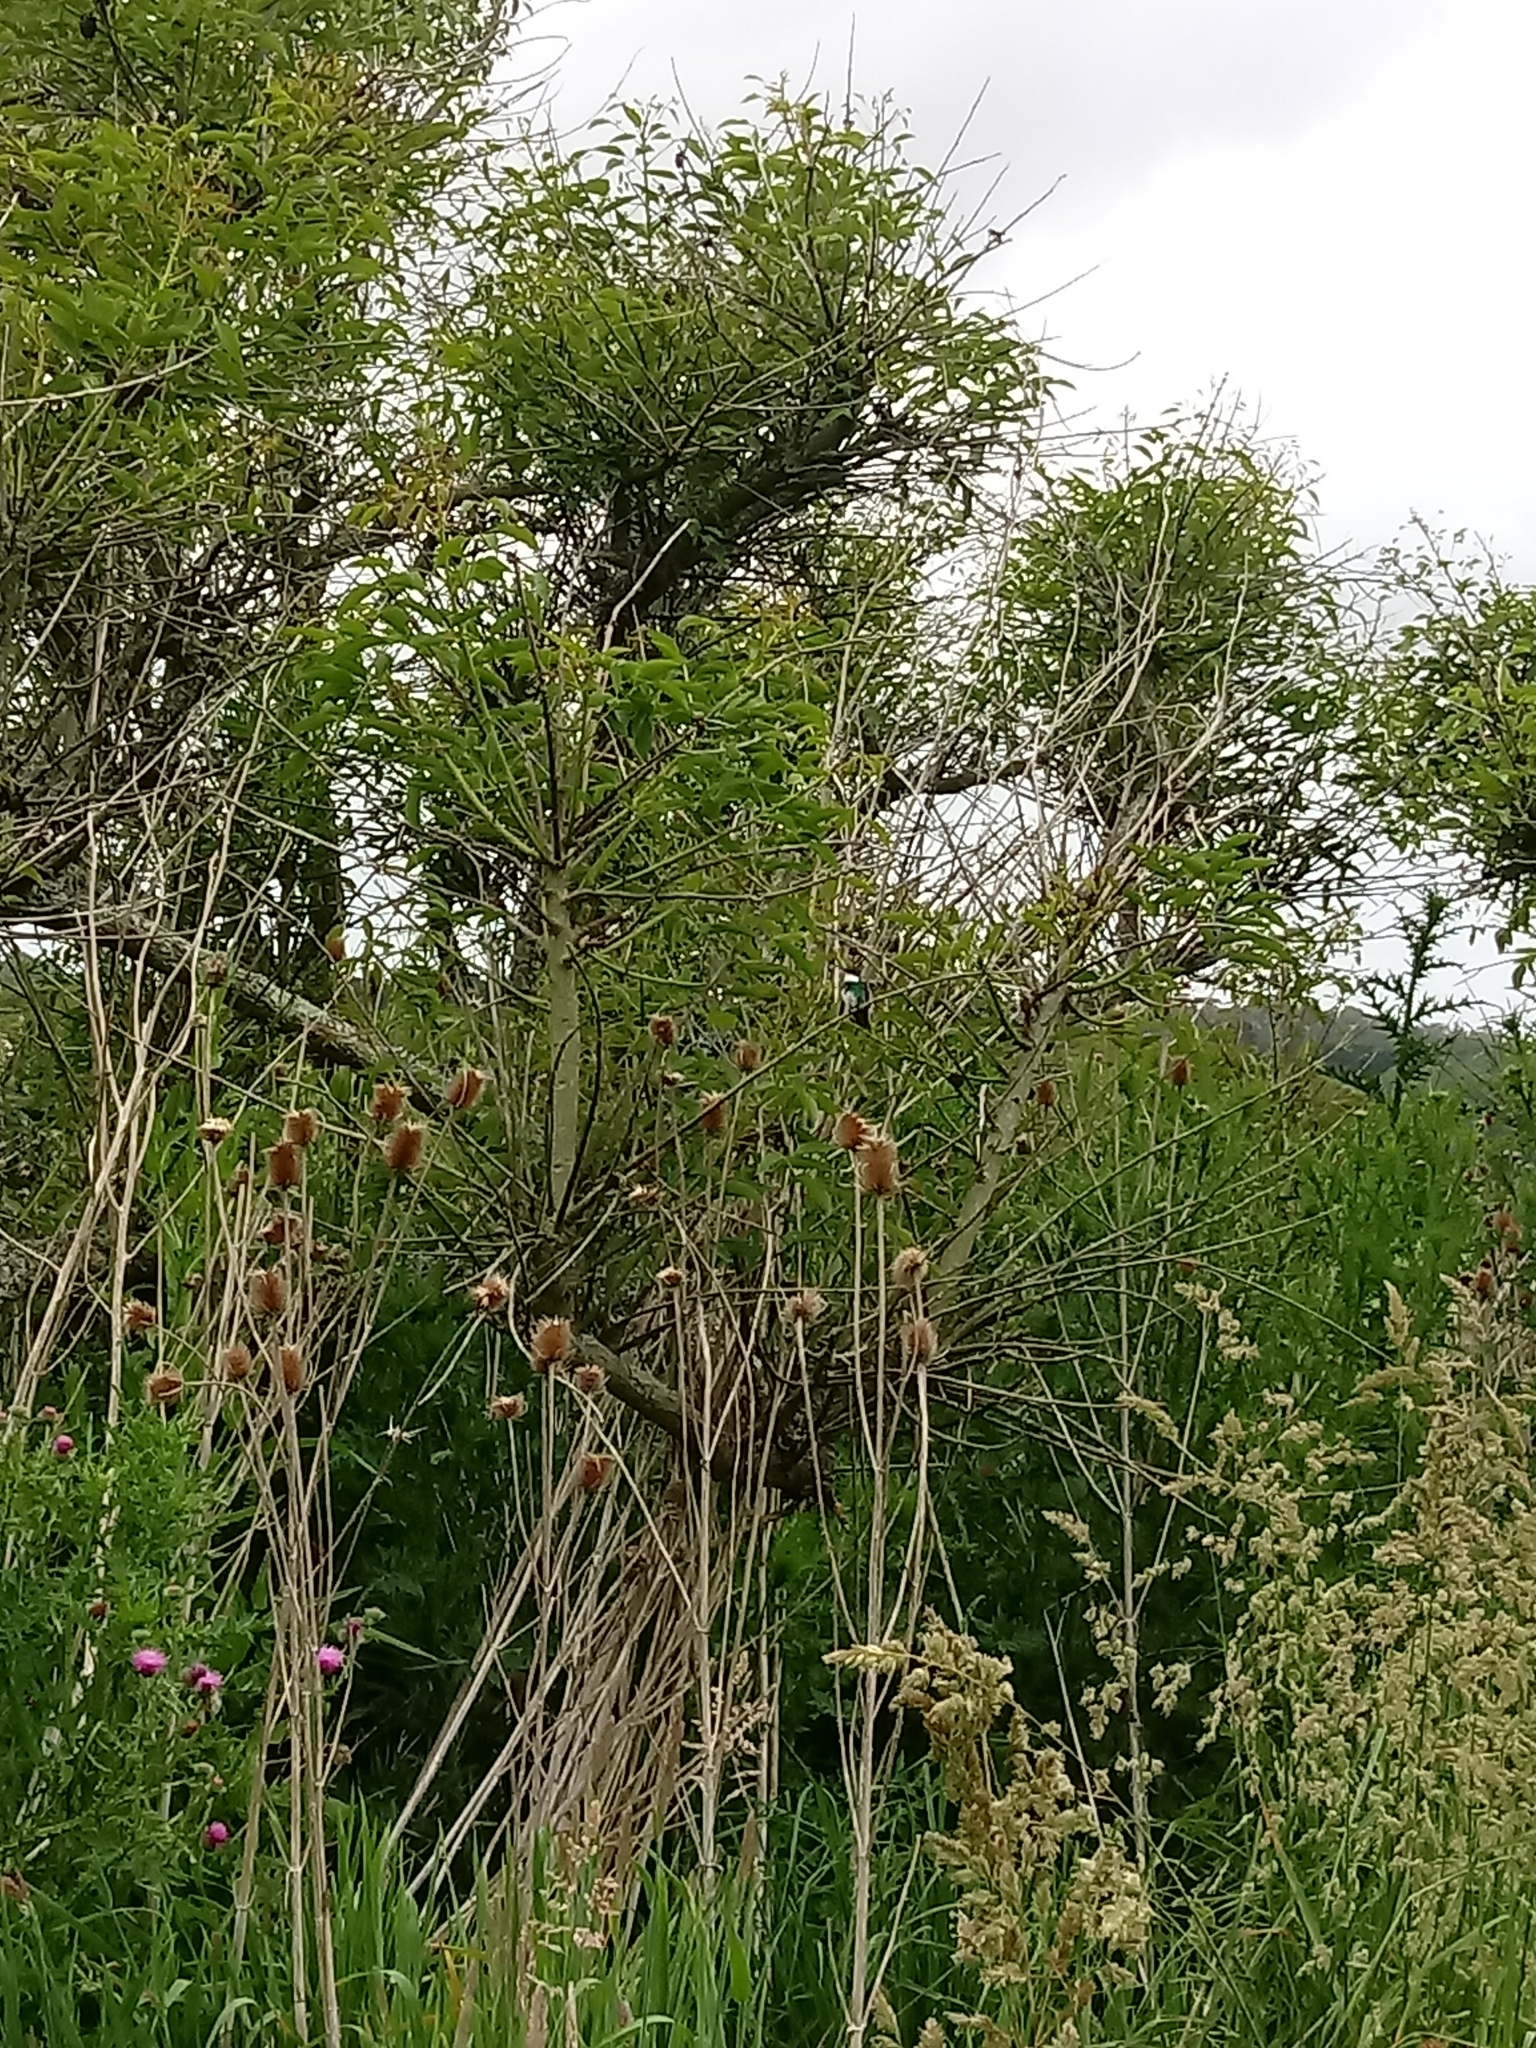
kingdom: Plantae
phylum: Tracheophyta
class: Magnoliopsida
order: Dipsacales
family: Caprifoliaceae
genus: Dipsacus
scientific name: Dipsacus fullonum
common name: Teasel
